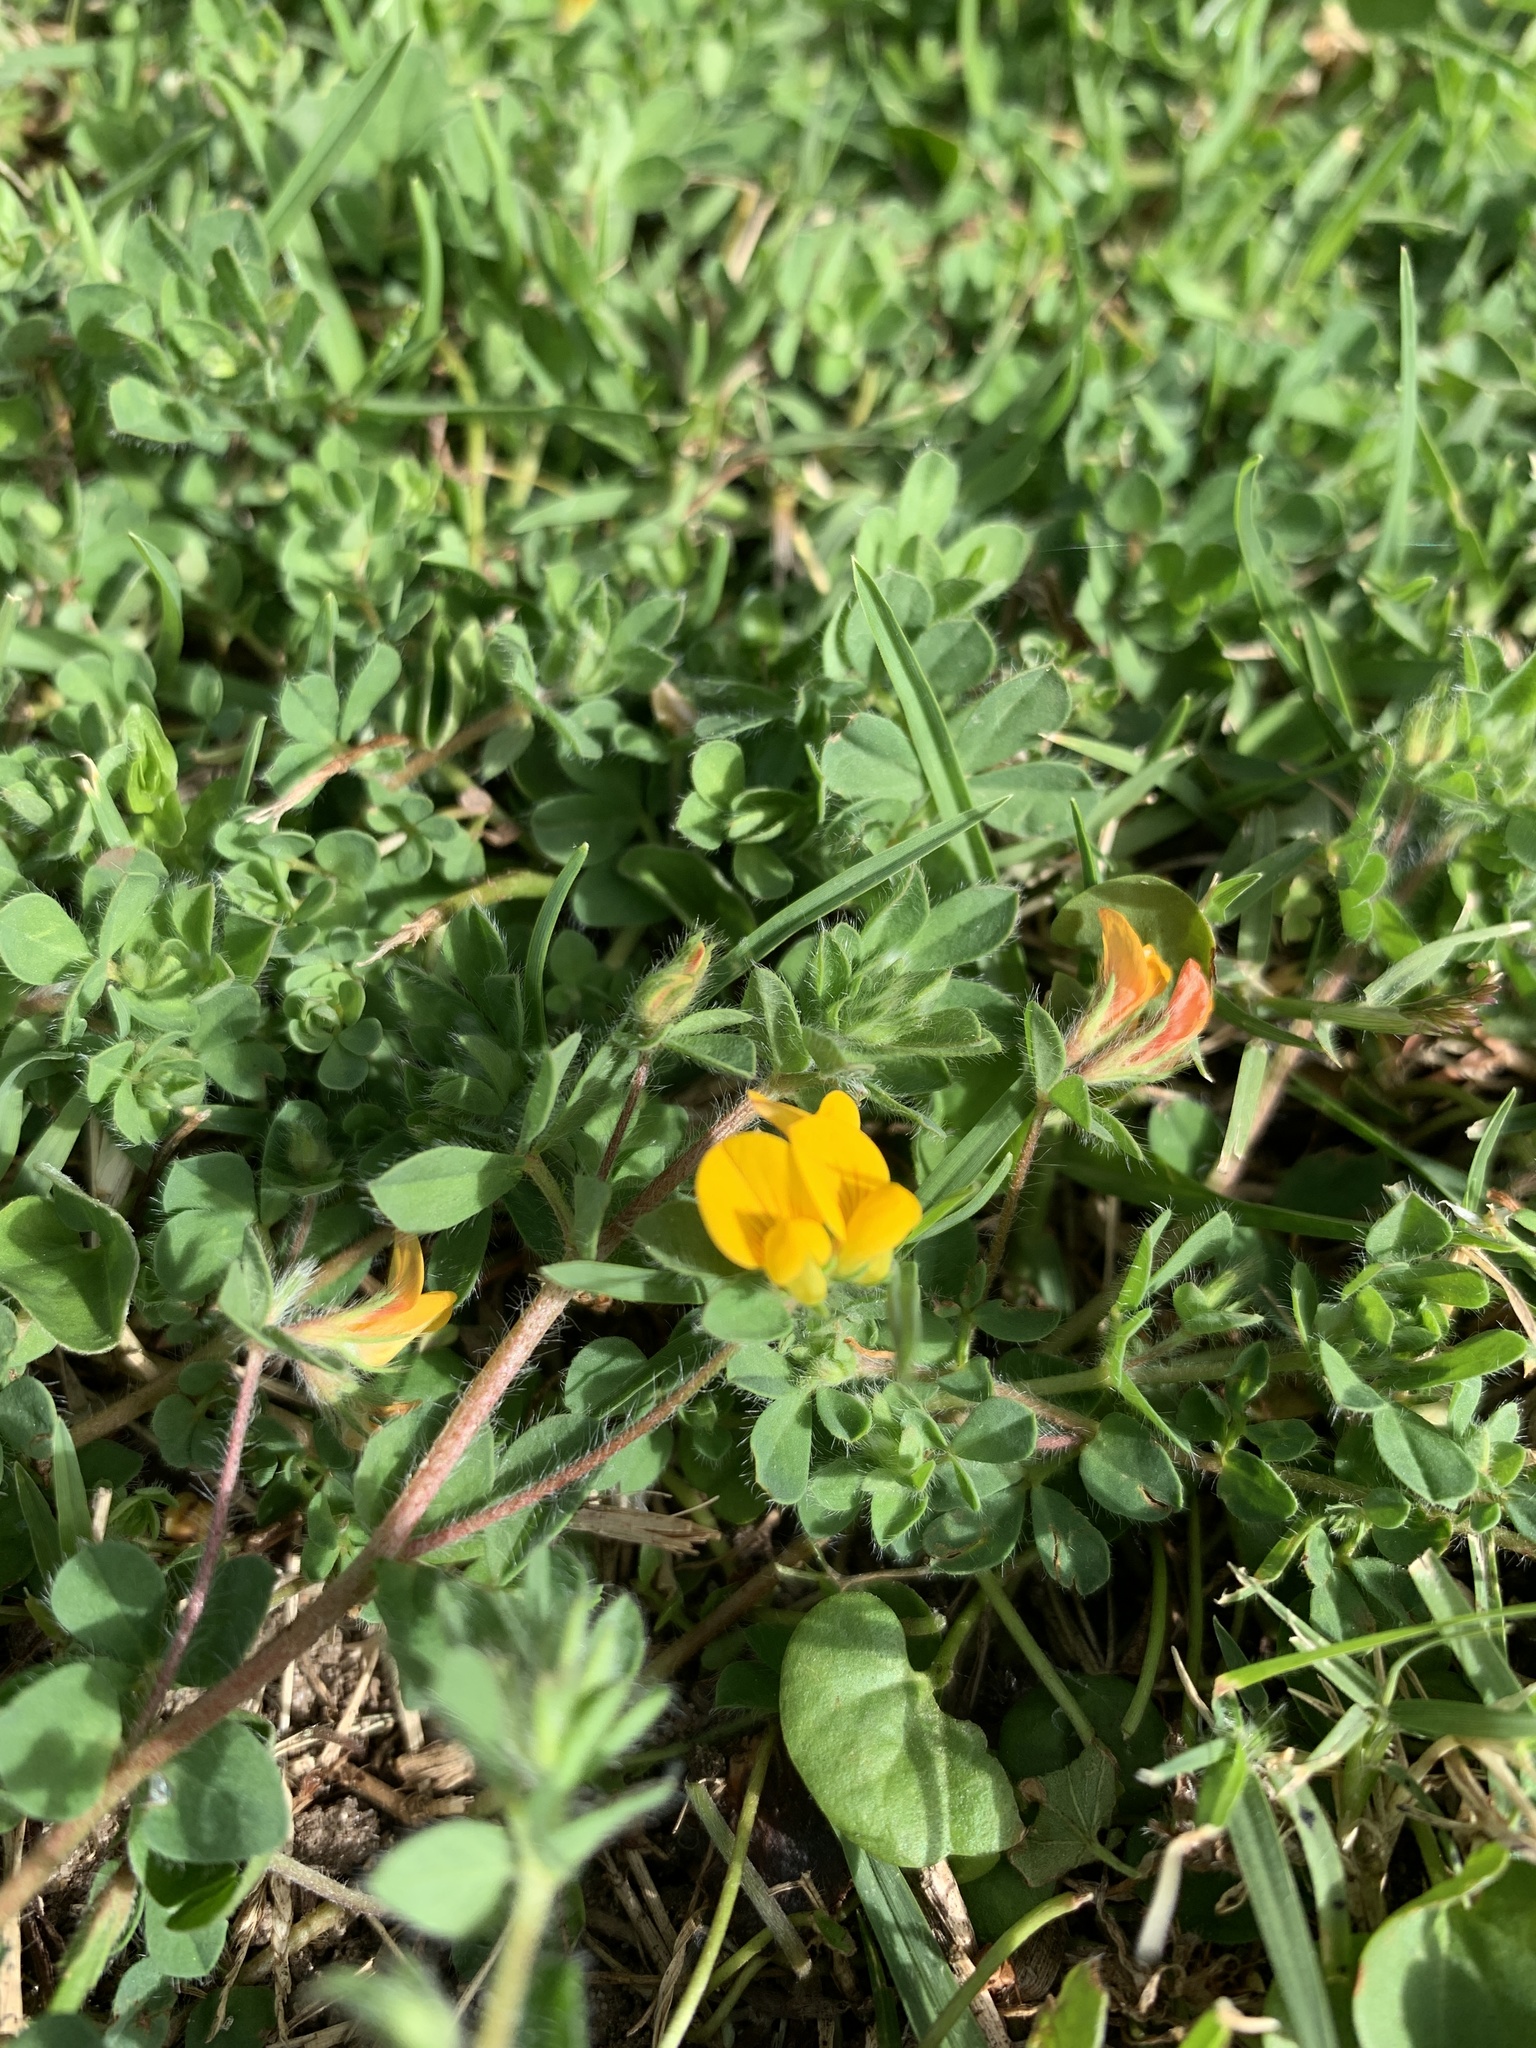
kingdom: Plantae
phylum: Tracheophyta
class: Magnoliopsida
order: Fabales
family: Fabaceae
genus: Lotus
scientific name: Lotus subbiflorus
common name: Hairy bird's-foot trefoil
